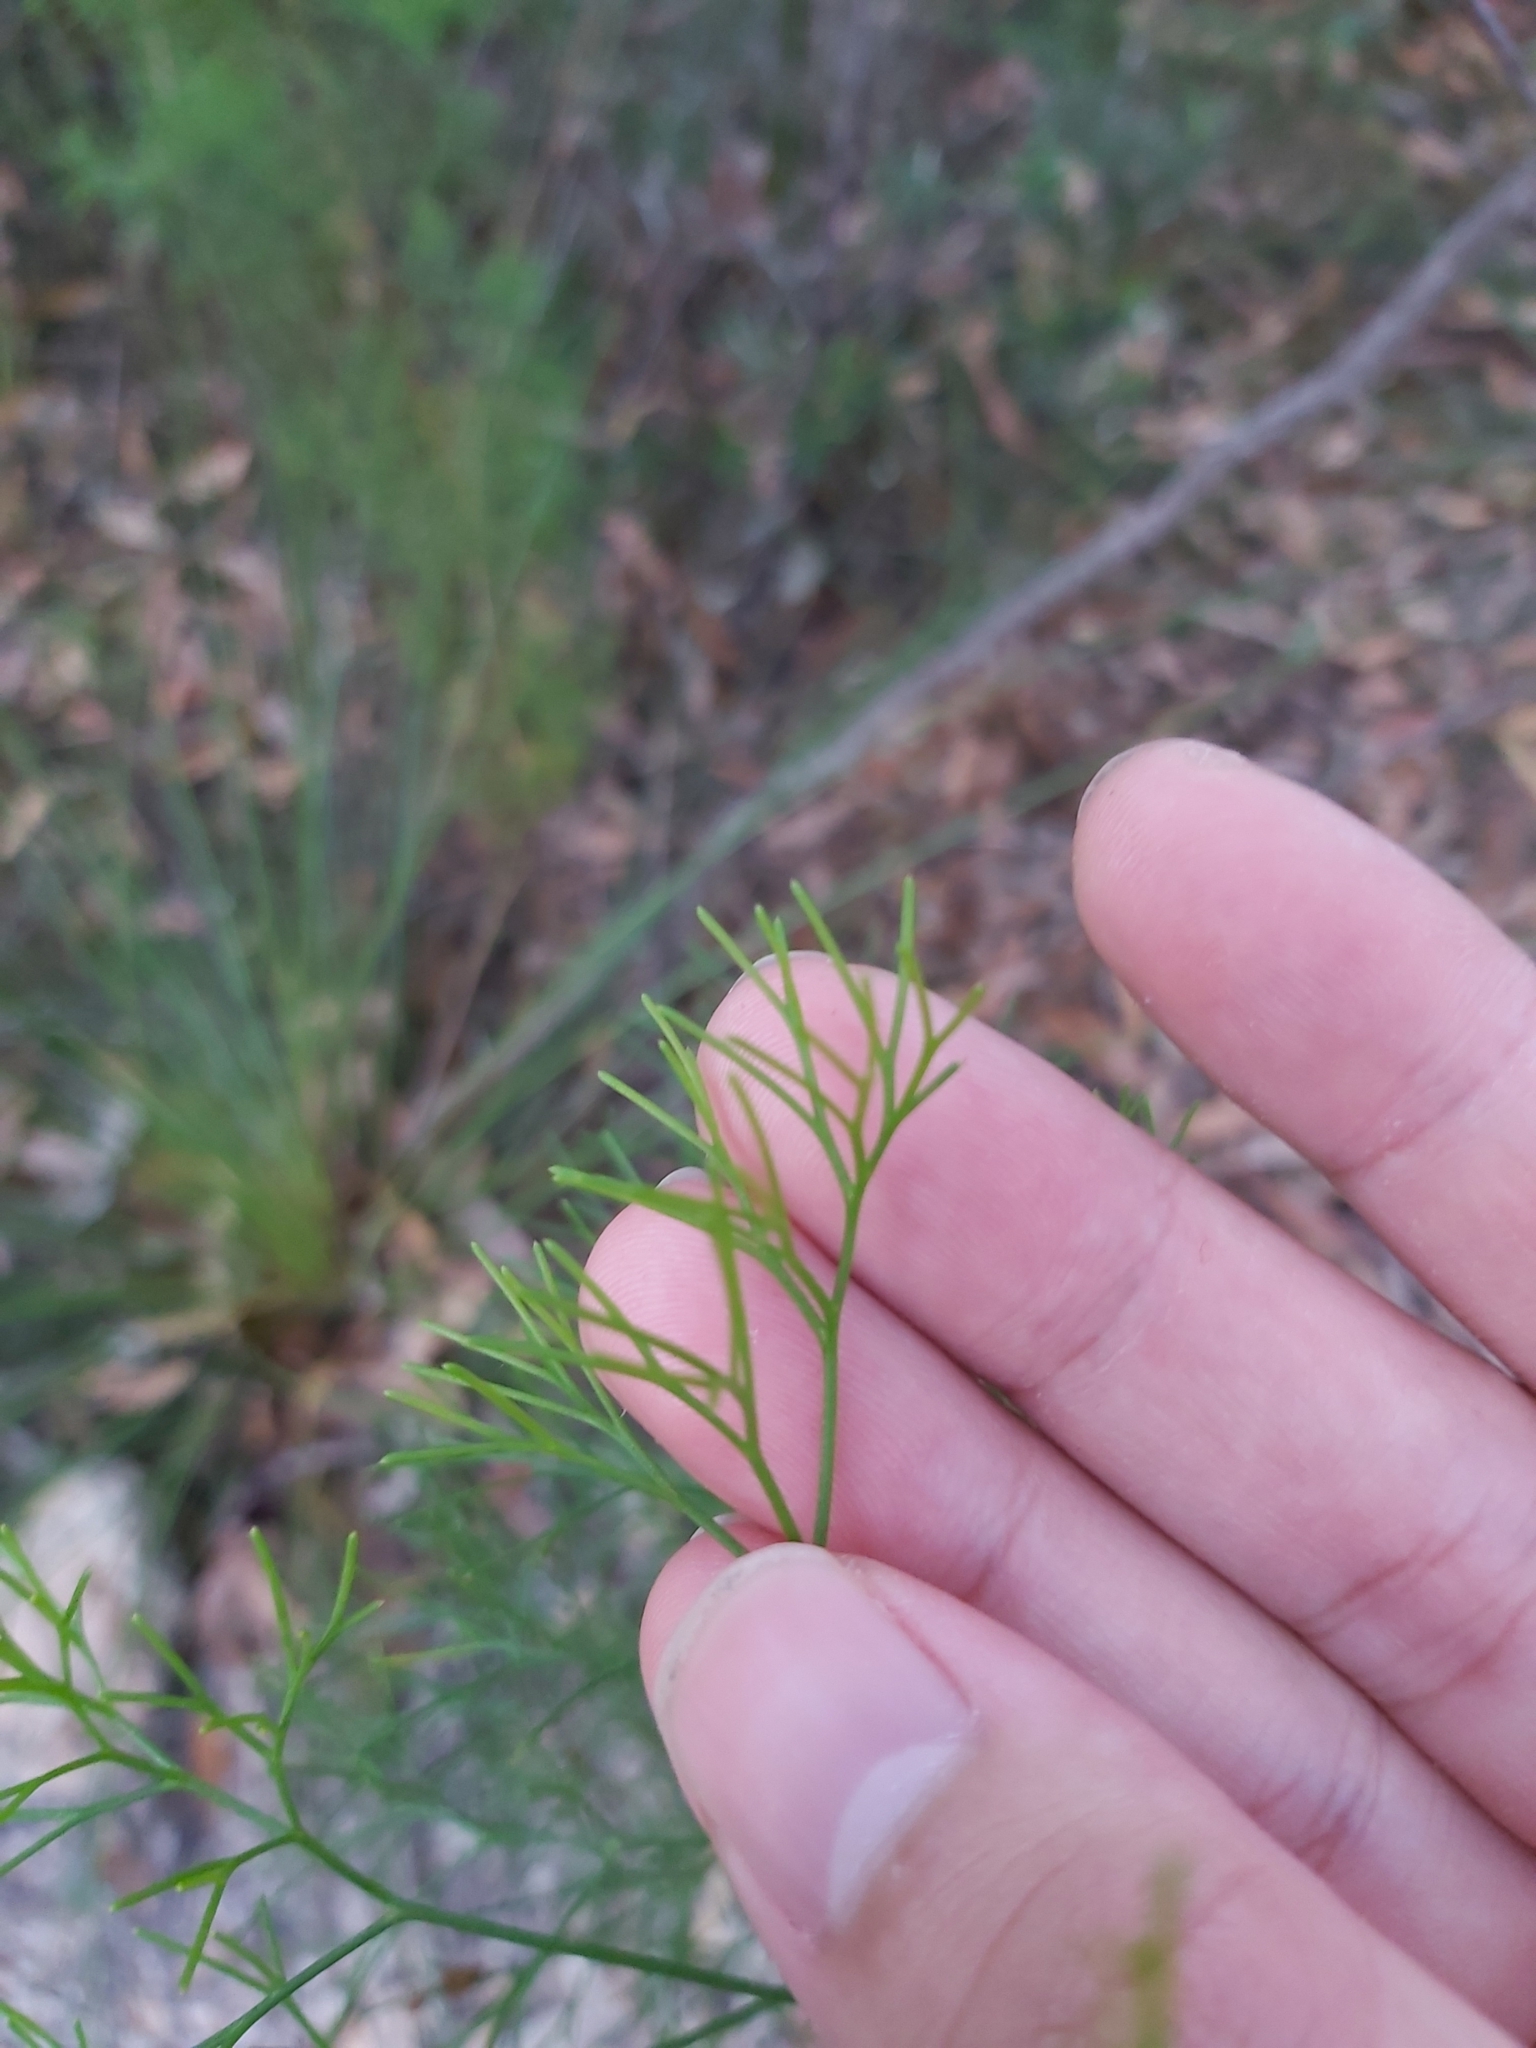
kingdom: Plantae
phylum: Tracheophyta
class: Magnoliopsida
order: Proteales
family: Proteaceae
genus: Isopogon
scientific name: Isopogon anethifolius
